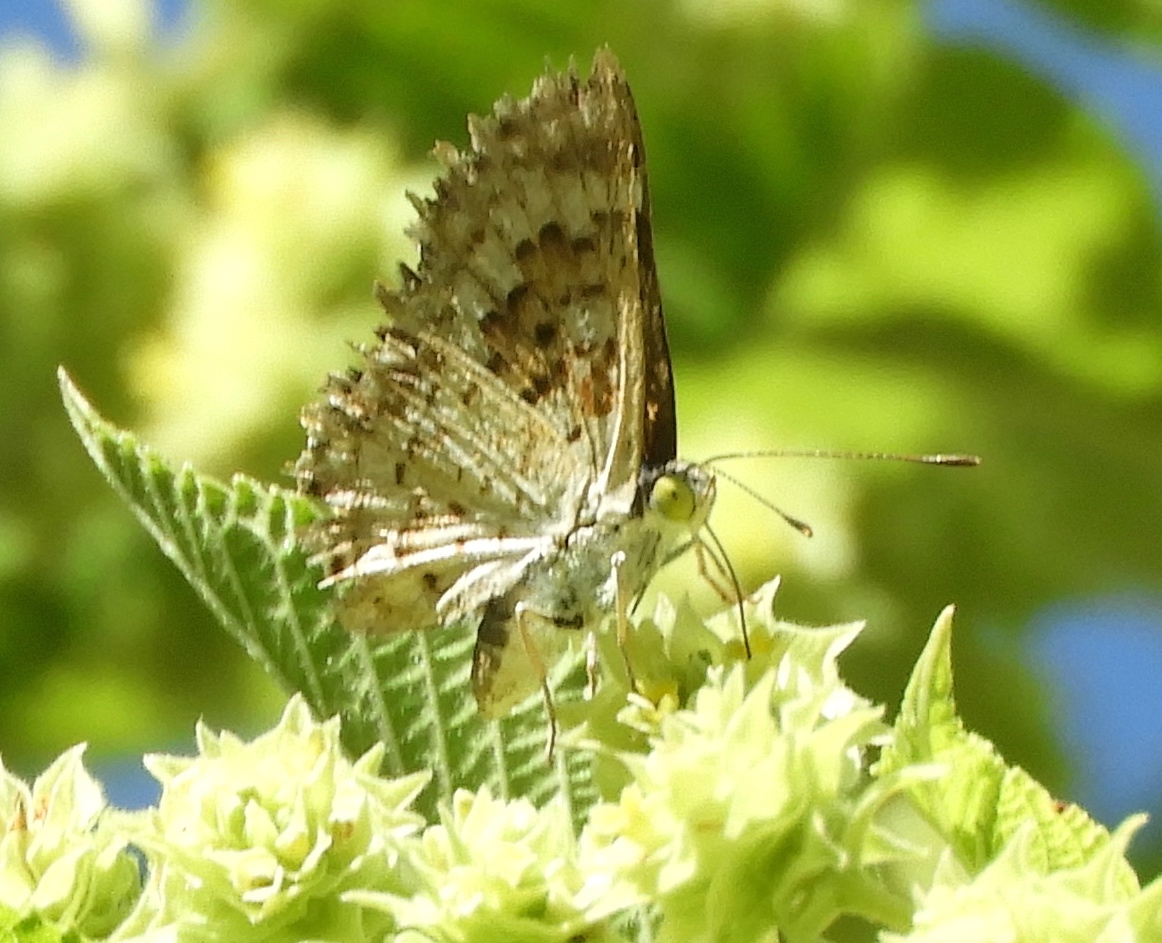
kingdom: Animalia
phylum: Arthropoda
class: Insecta
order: Lepidoptera
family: Riodinidae
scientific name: Riodinidae
